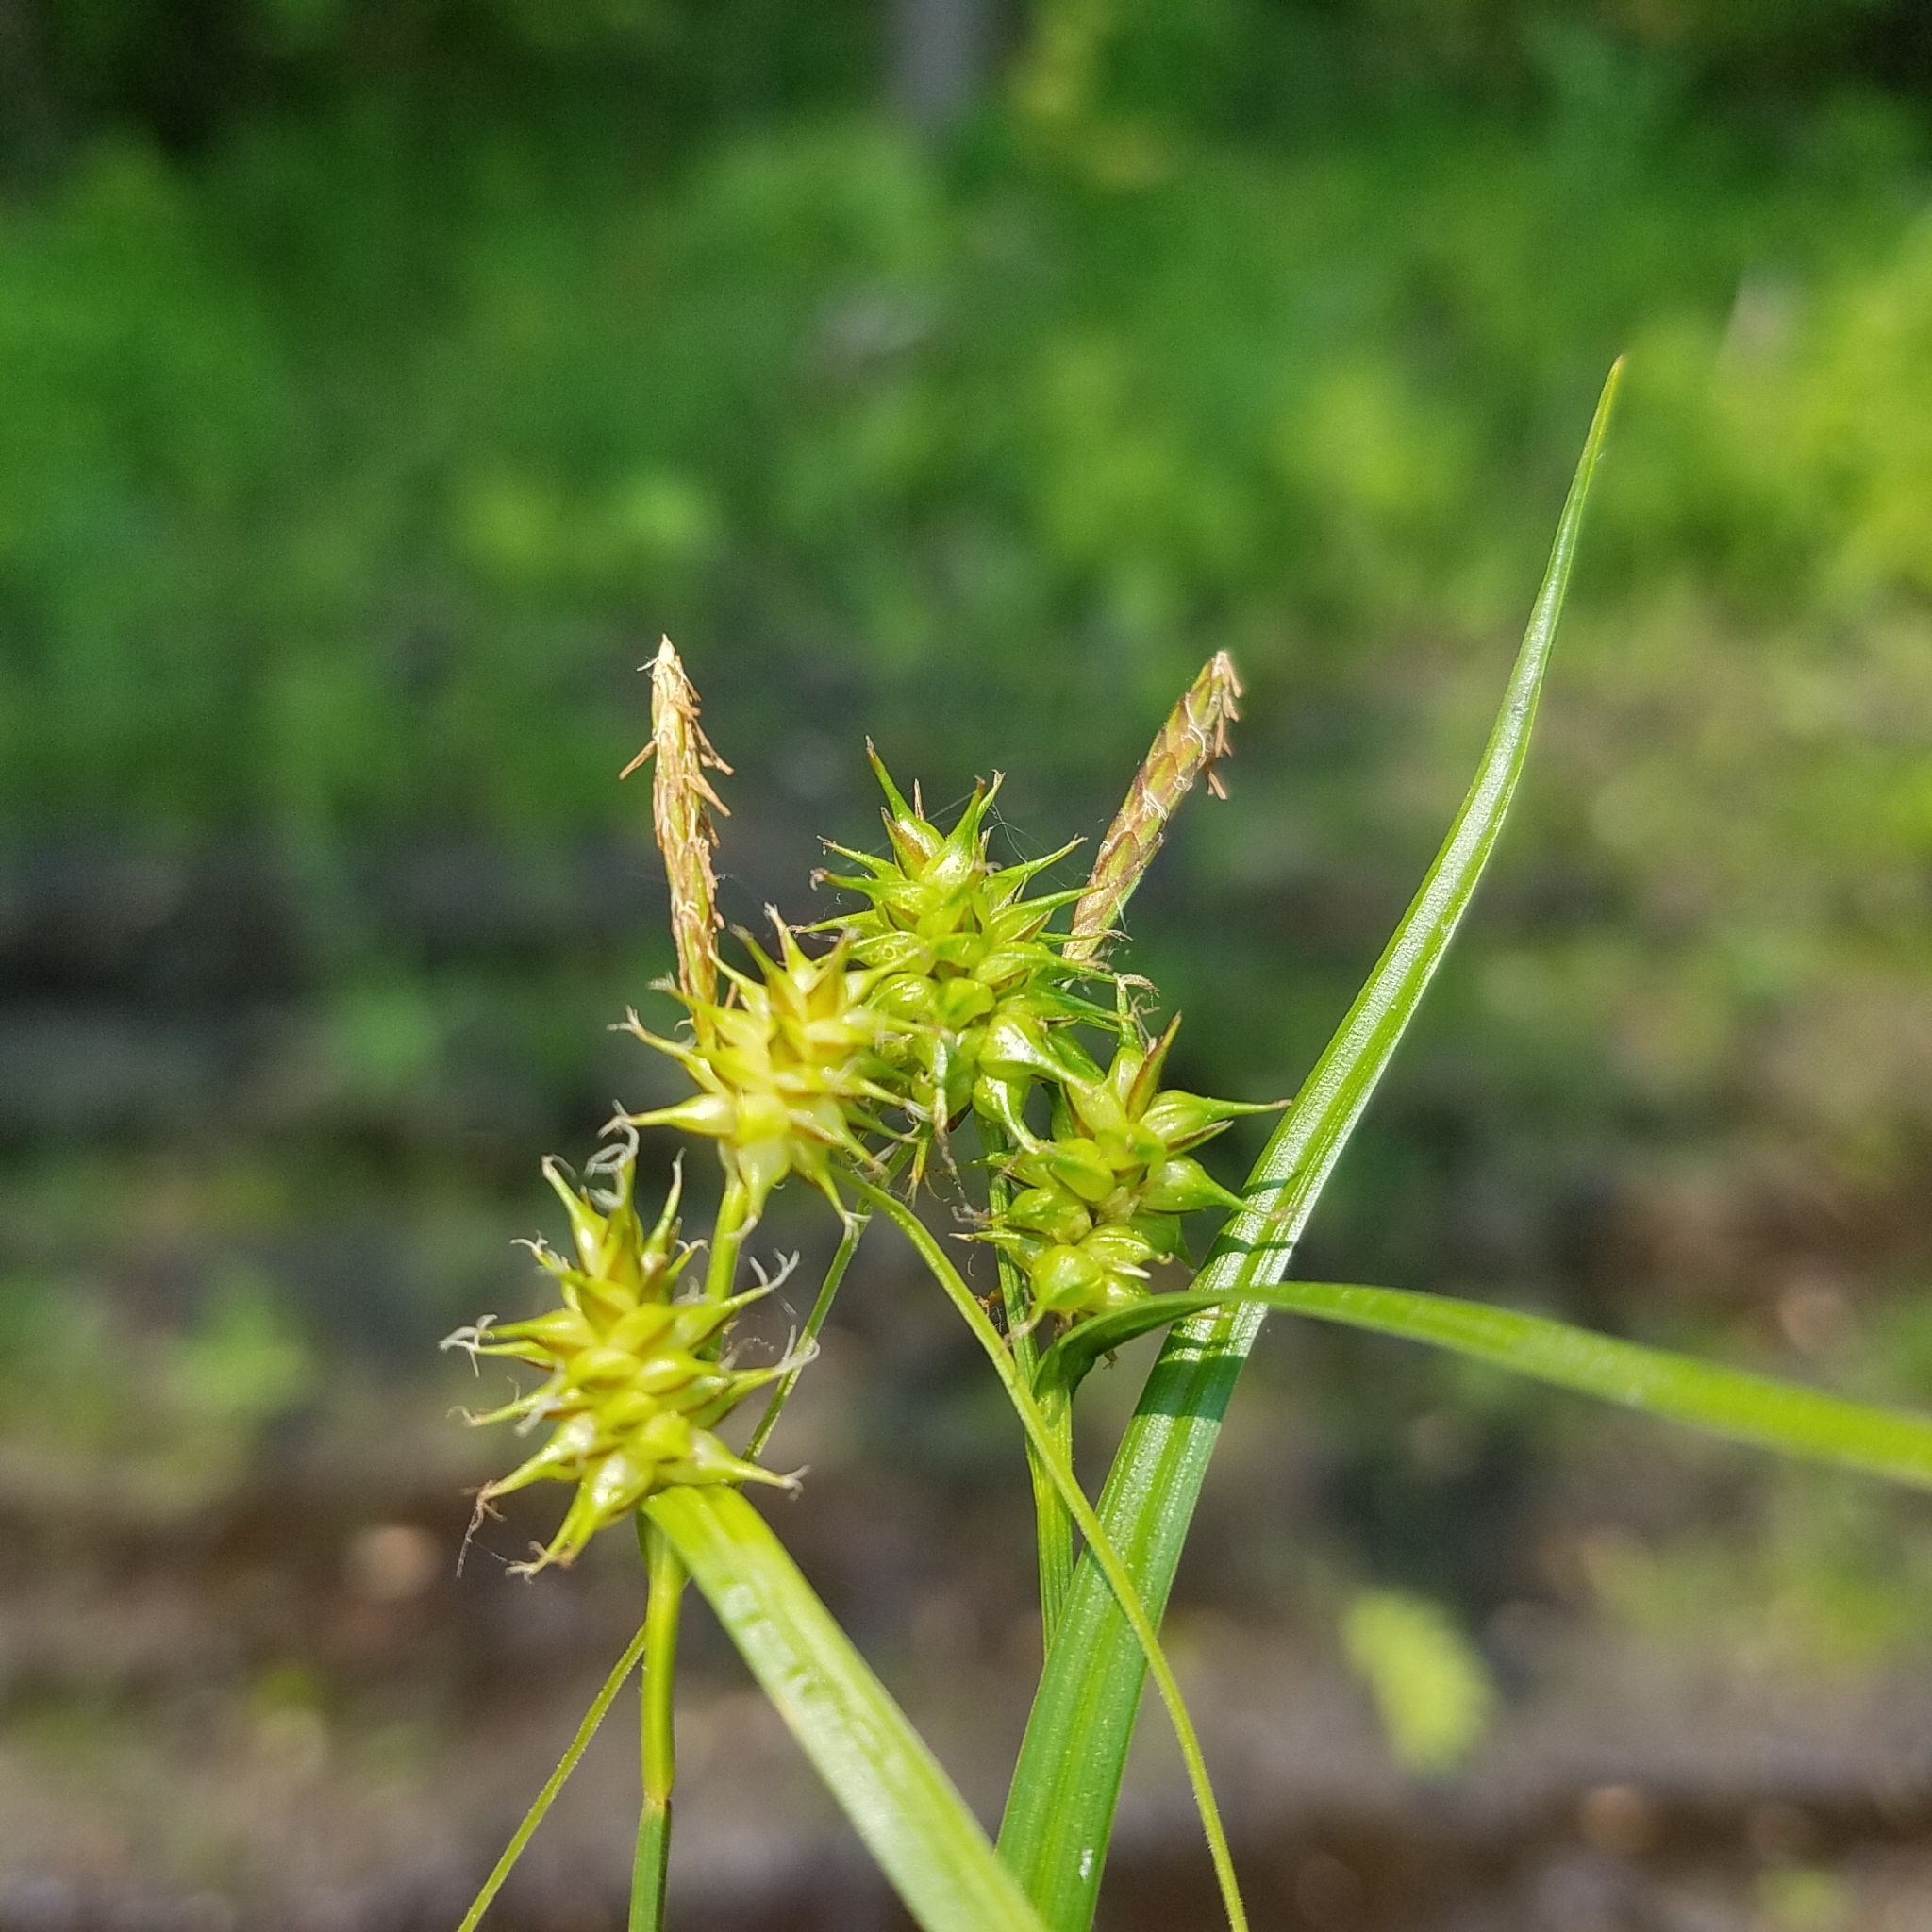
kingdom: Plantae
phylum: Tracheophyta
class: Liliopsida
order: Poales
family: Cyperaceae
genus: Carex
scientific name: Carex flava
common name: Large yellow-sedge
